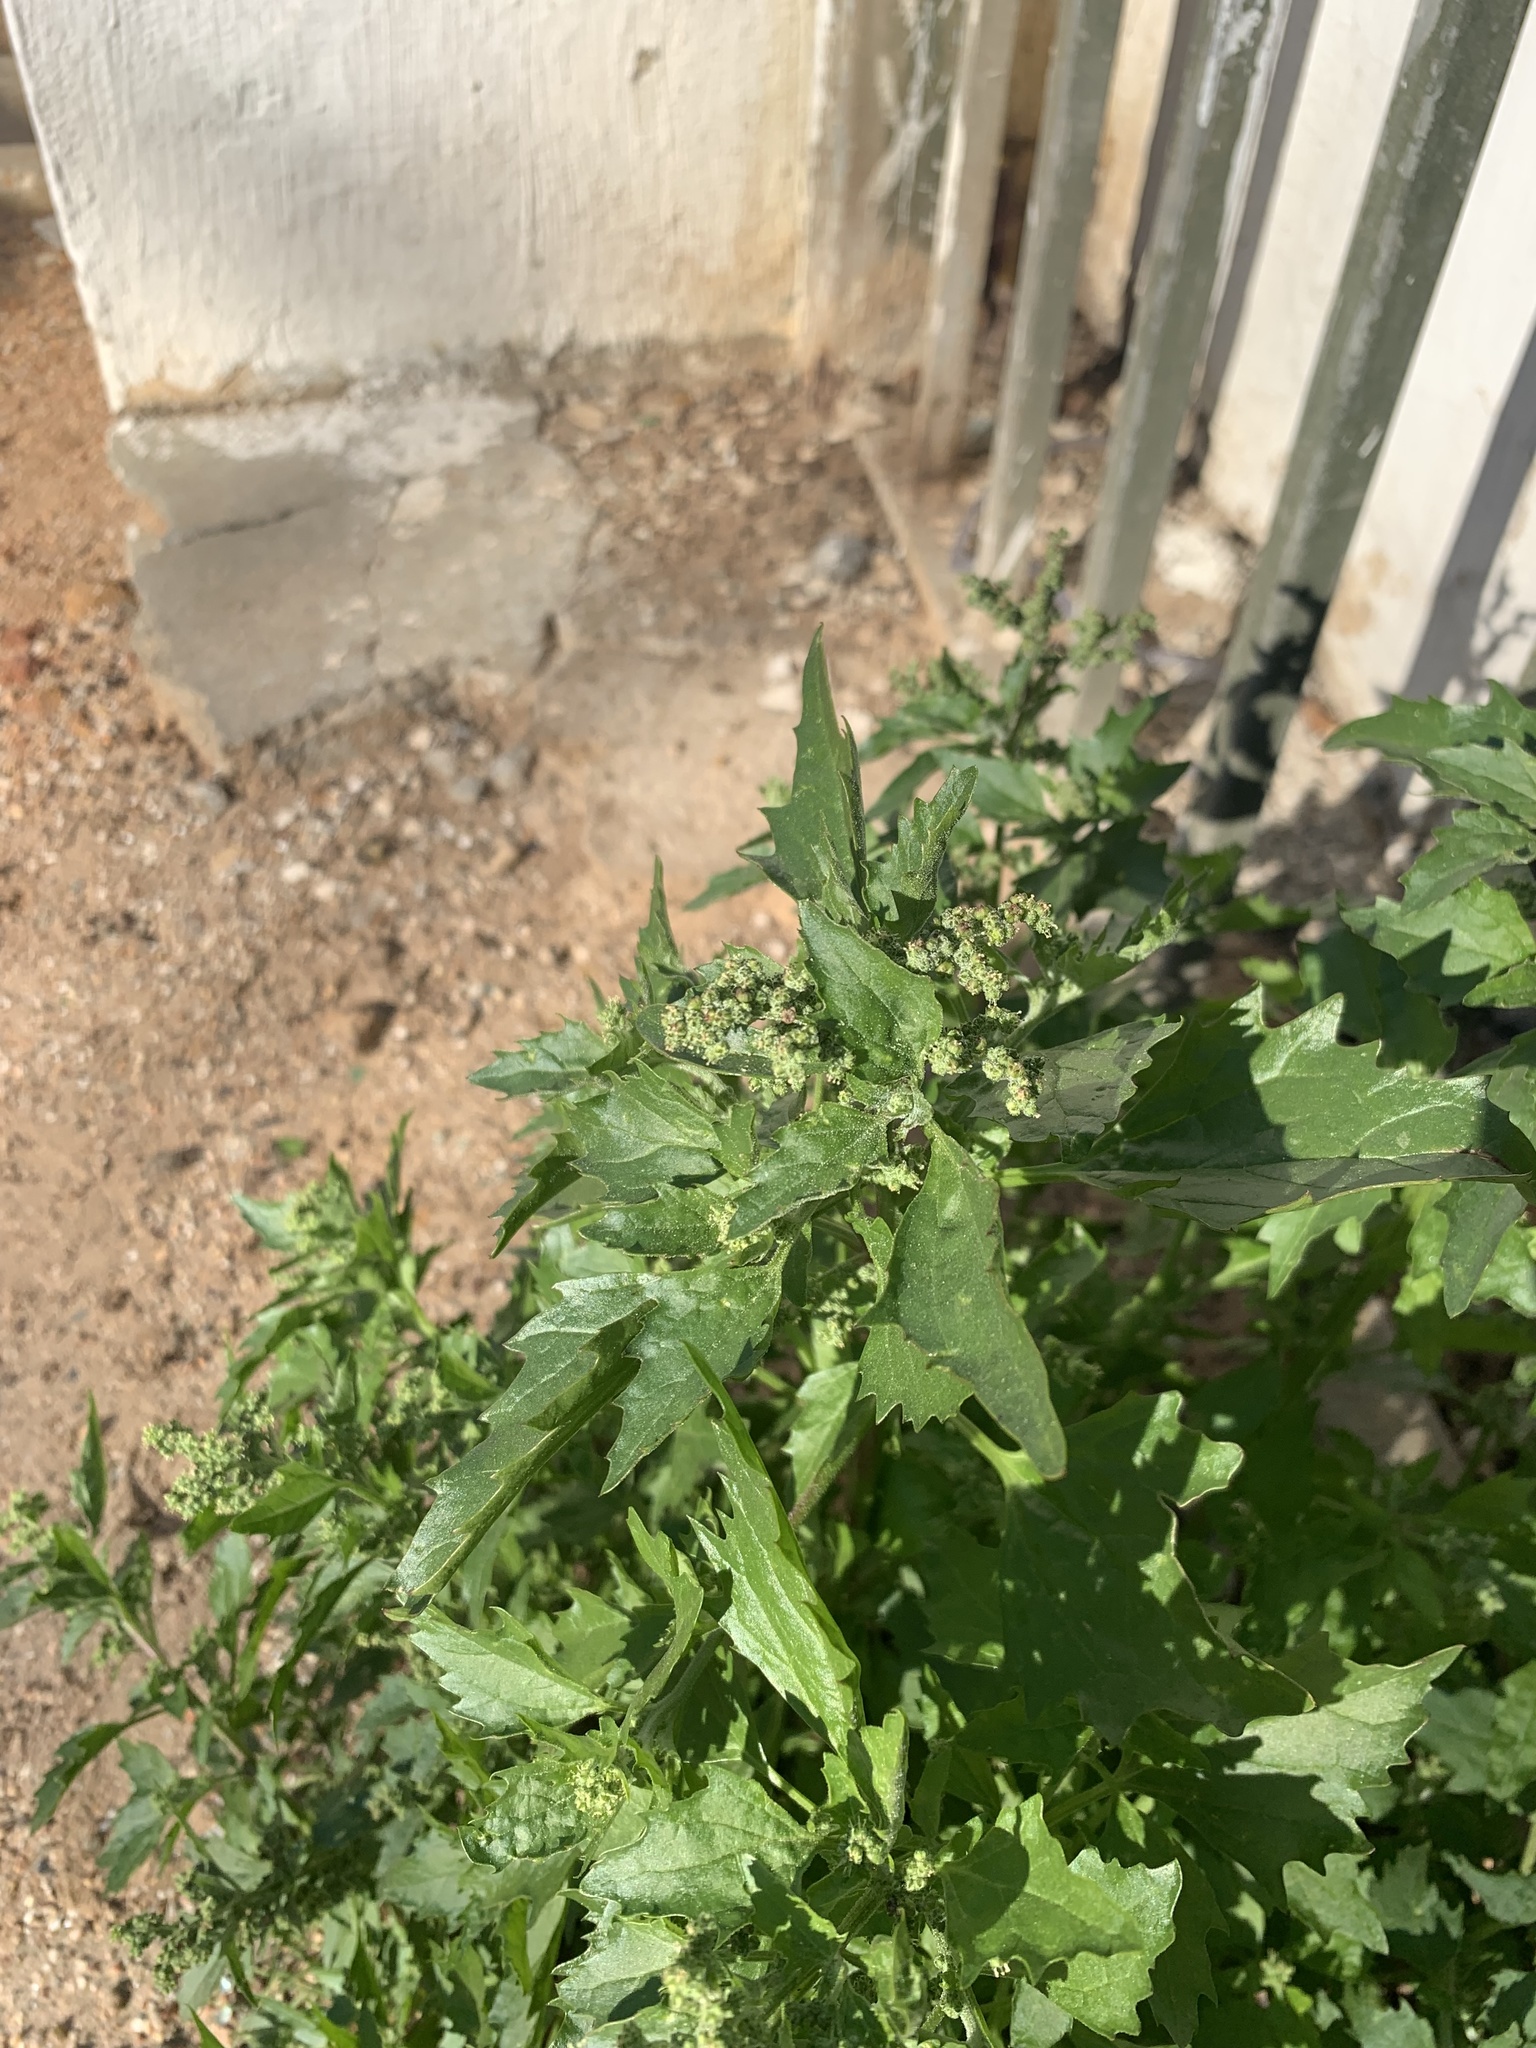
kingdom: Plantae
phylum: Tracheophyta
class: Magnoliopsida
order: Caryophyllales
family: Amaranthaceae
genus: Chenopodiastrum
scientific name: Chenopodiastrum murale
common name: Sowbane
